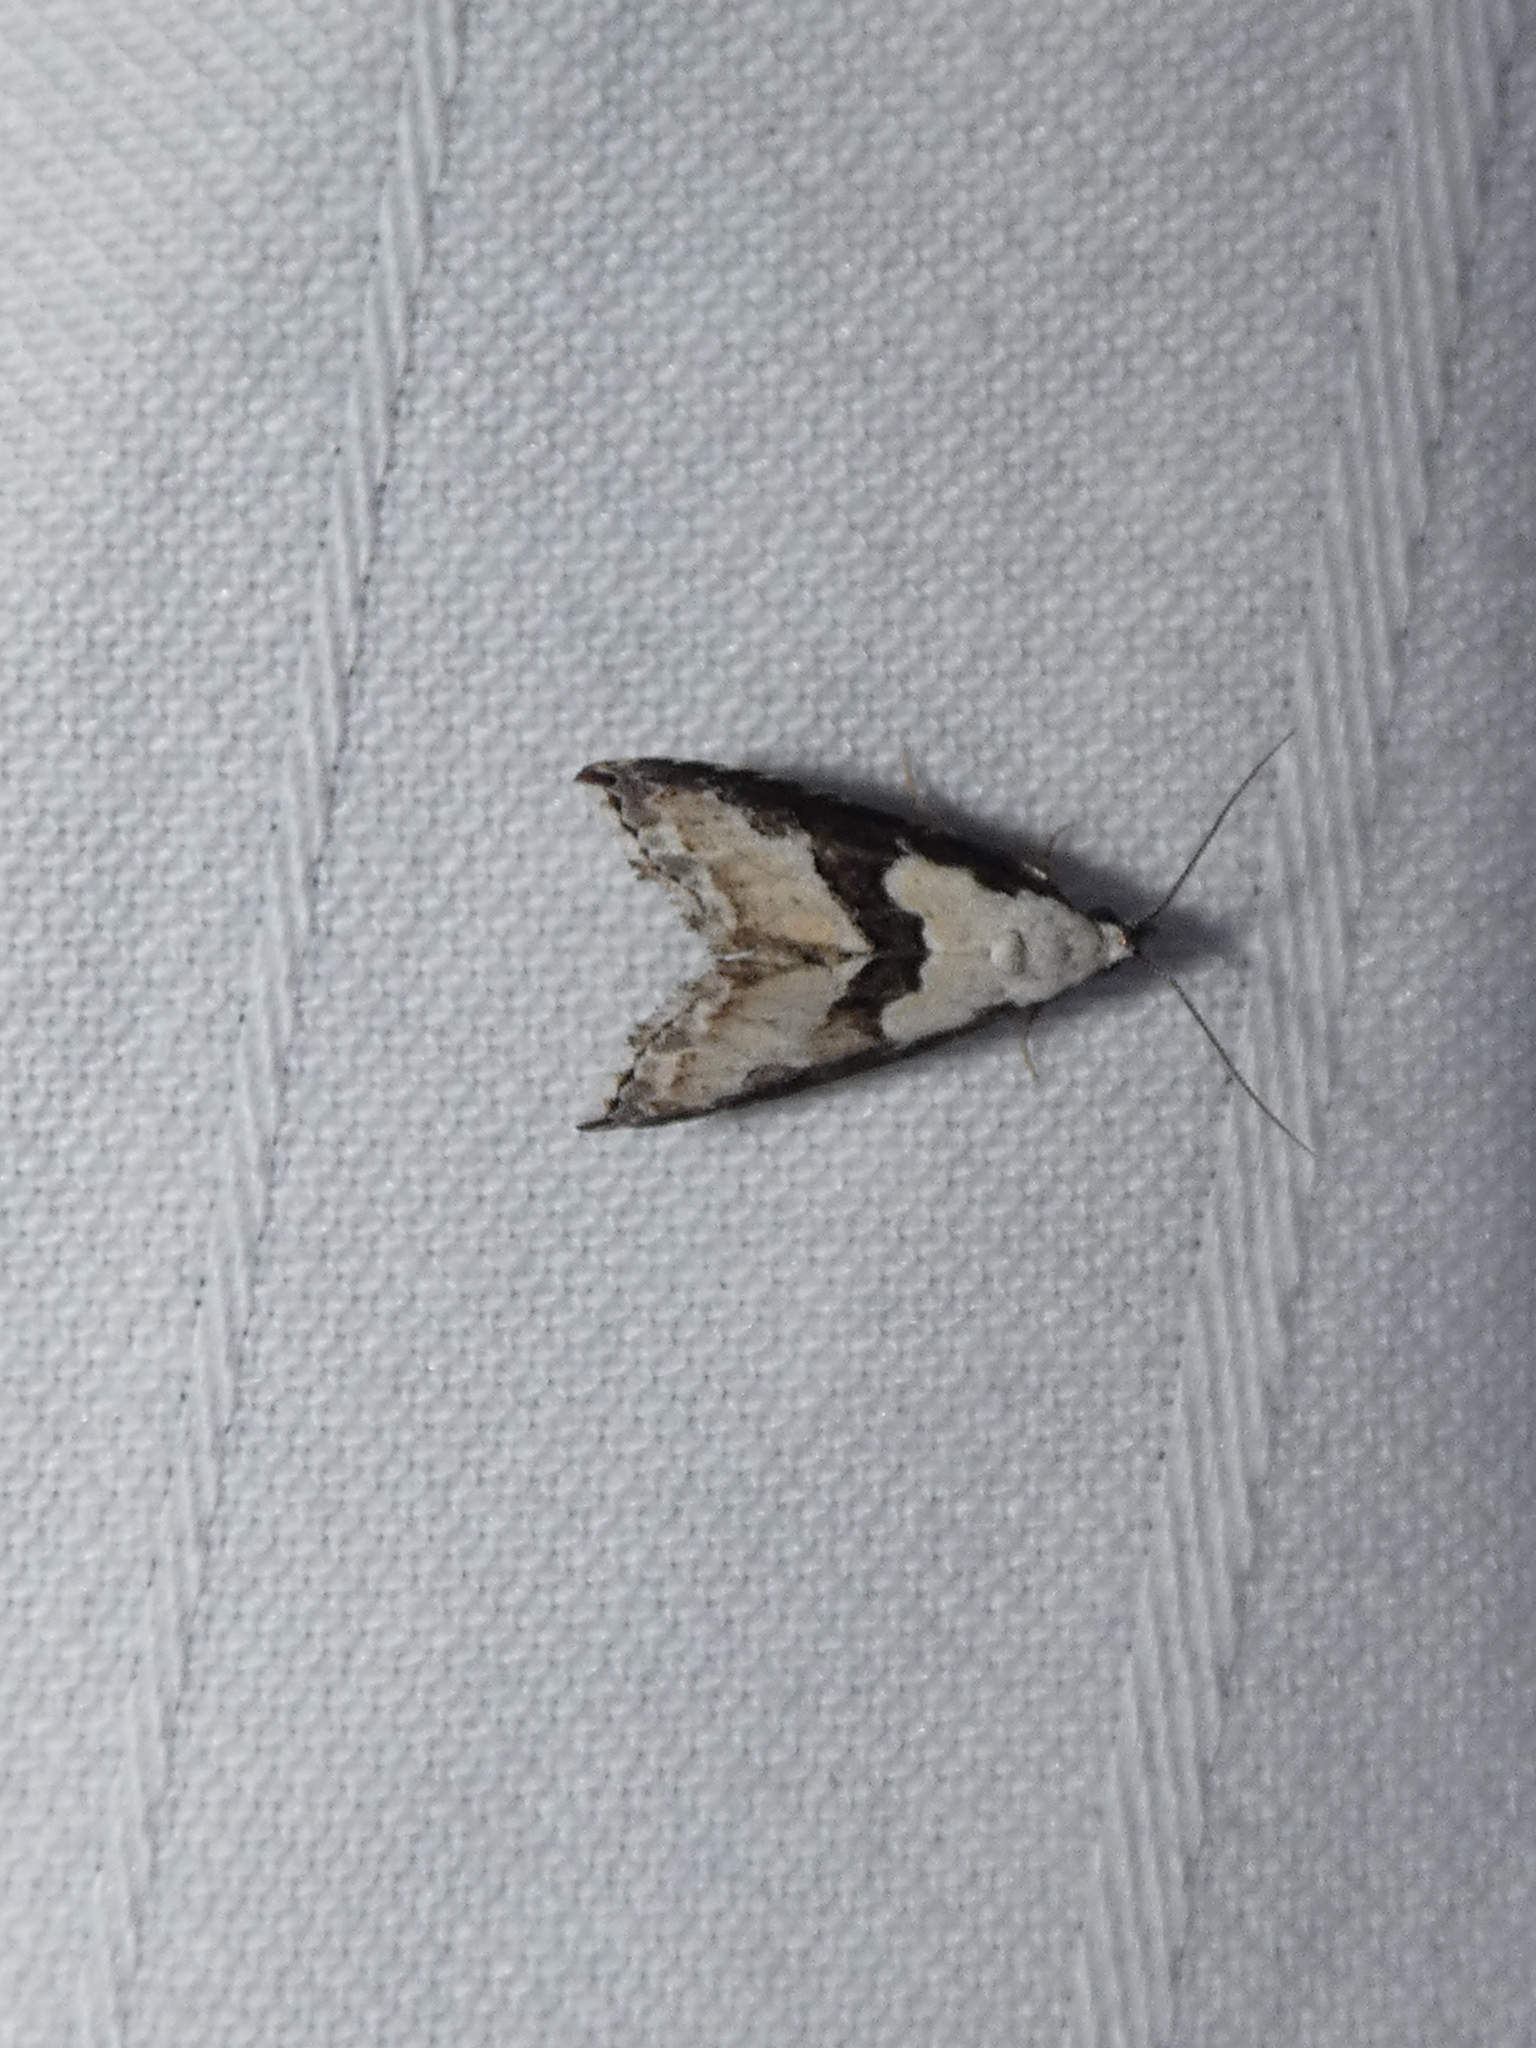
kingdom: Animalia
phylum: Arthropoda
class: Insecta
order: Lepidoptera
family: Noctuidae
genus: Nigetia
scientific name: Nigetia formosalis
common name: Thin-winged owlet
